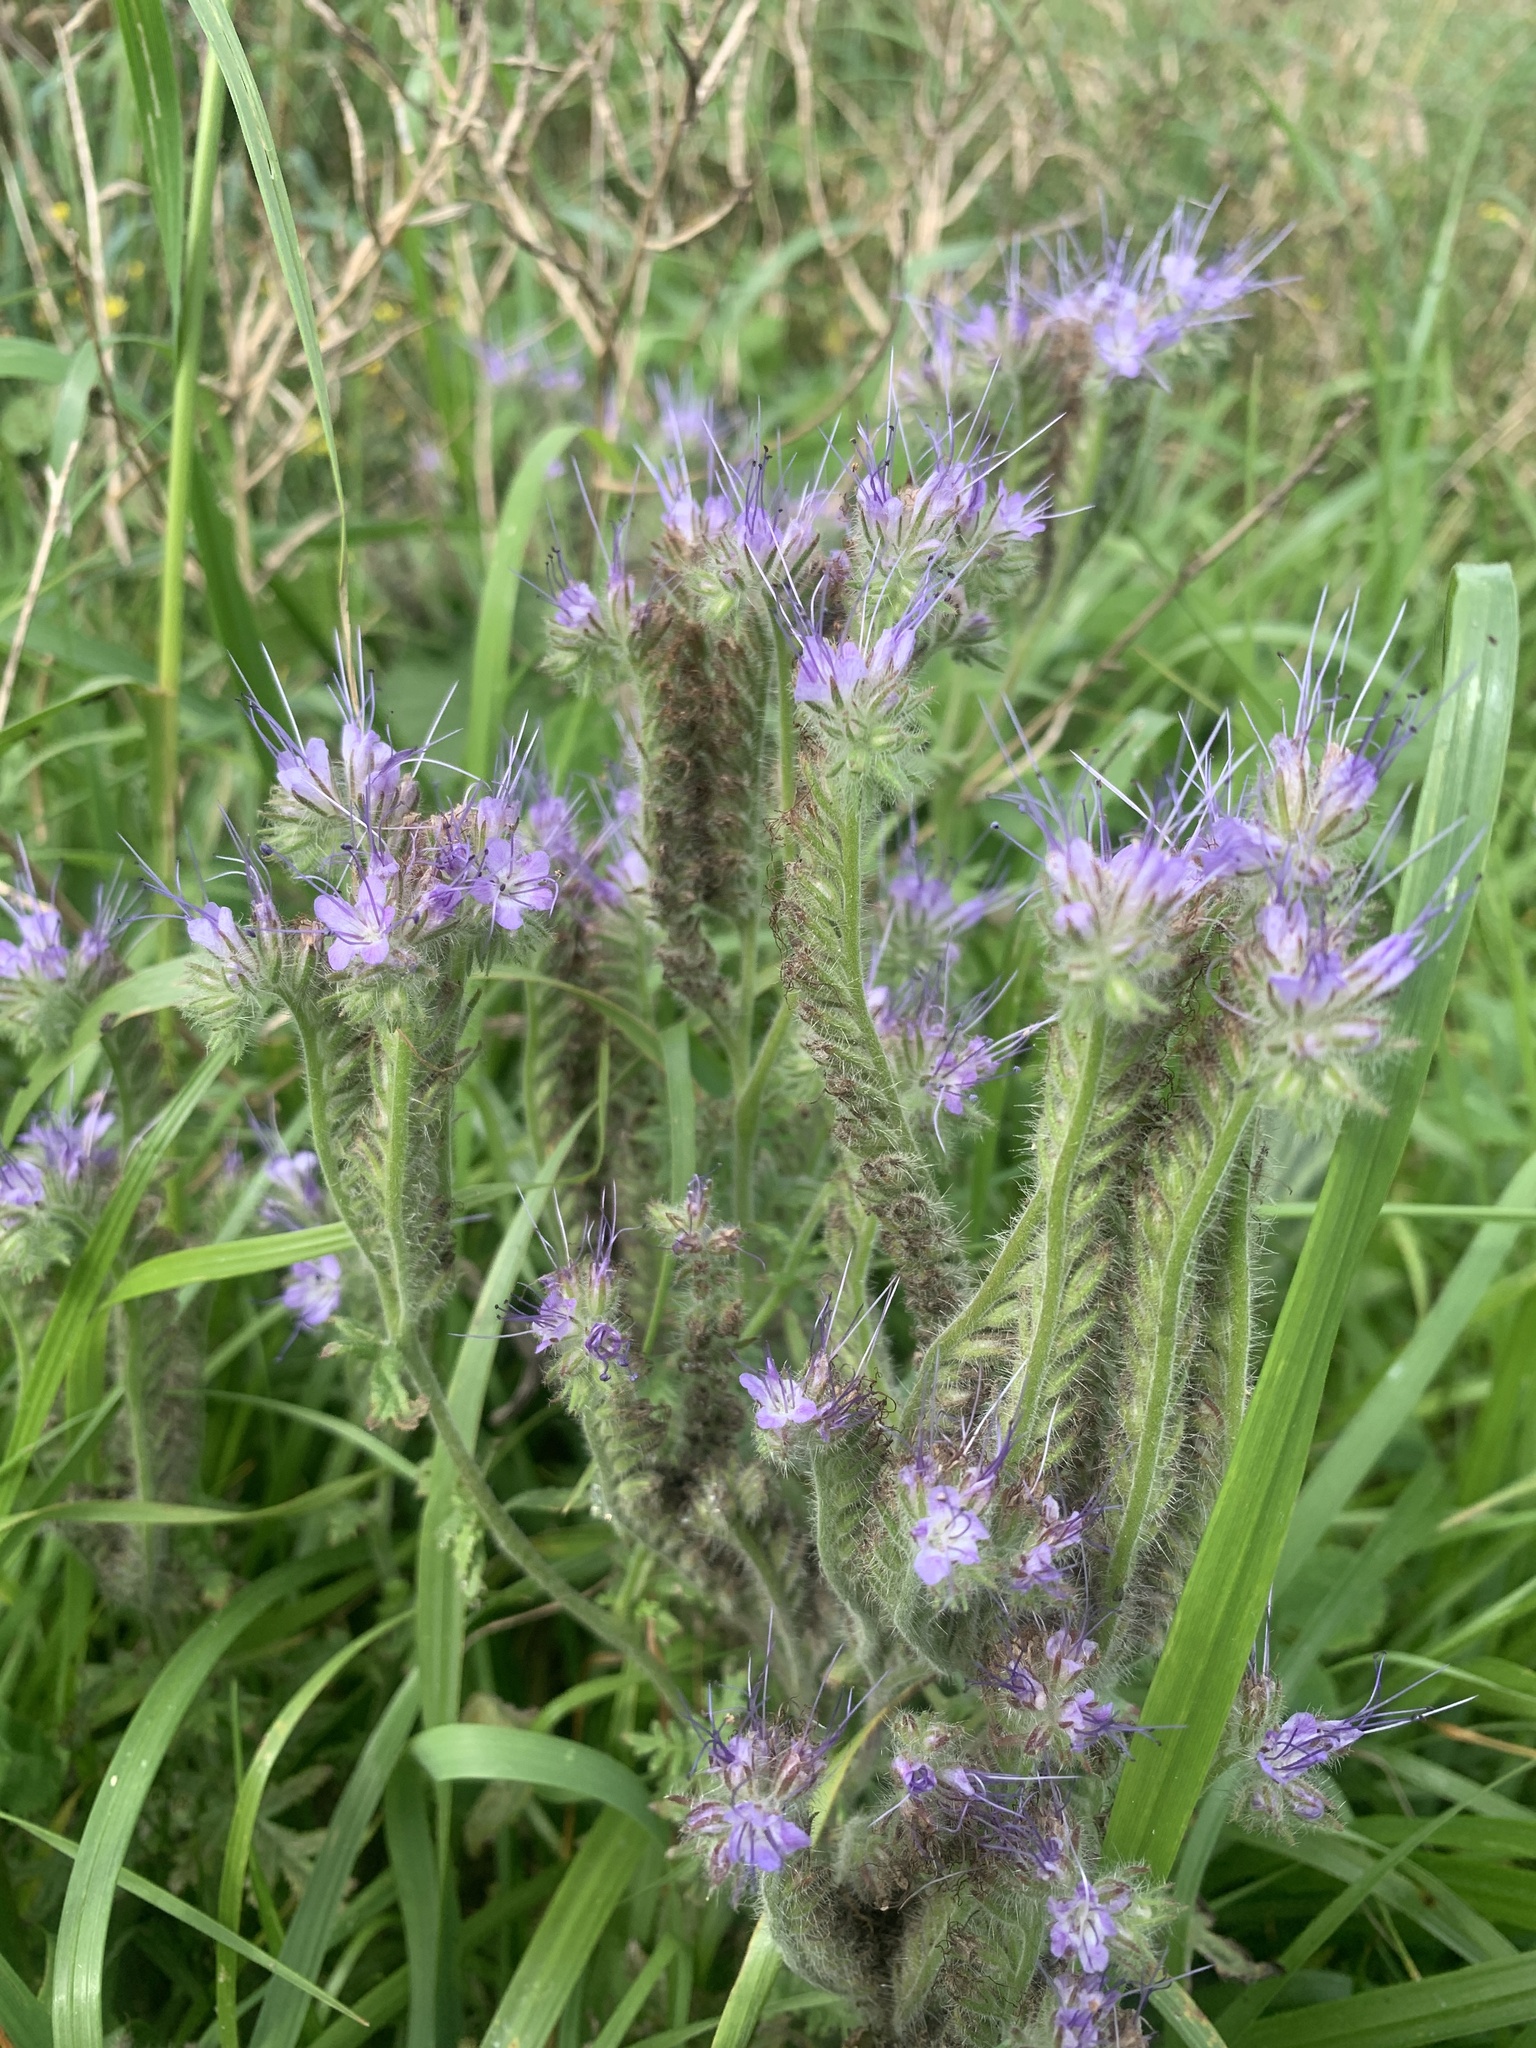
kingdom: Plantae
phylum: Tracheophyta
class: Magnoliopsida
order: Boraginales
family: Hydrophyllaceae
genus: Phacelia
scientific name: Phacelia tanacetifolia
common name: Phacelia
